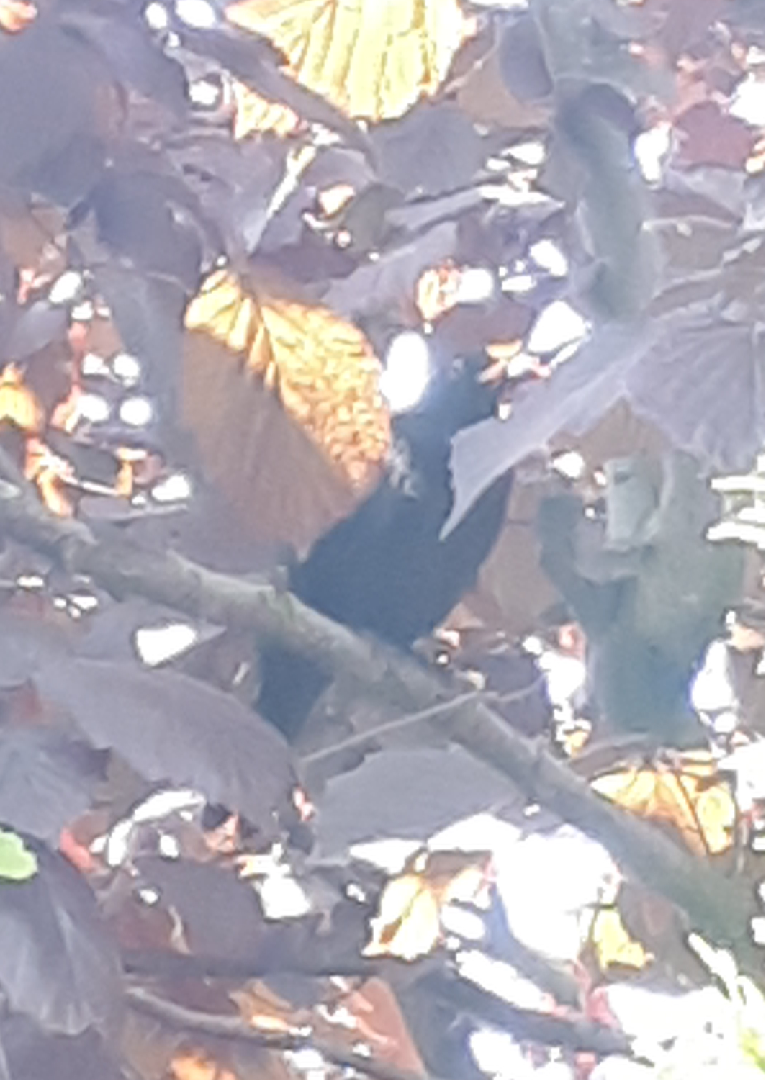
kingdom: Animalia
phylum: Chordata
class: Aves
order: Passeriformes
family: Turdidae
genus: Turdus
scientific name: Turdus merula
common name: Common blackbird
